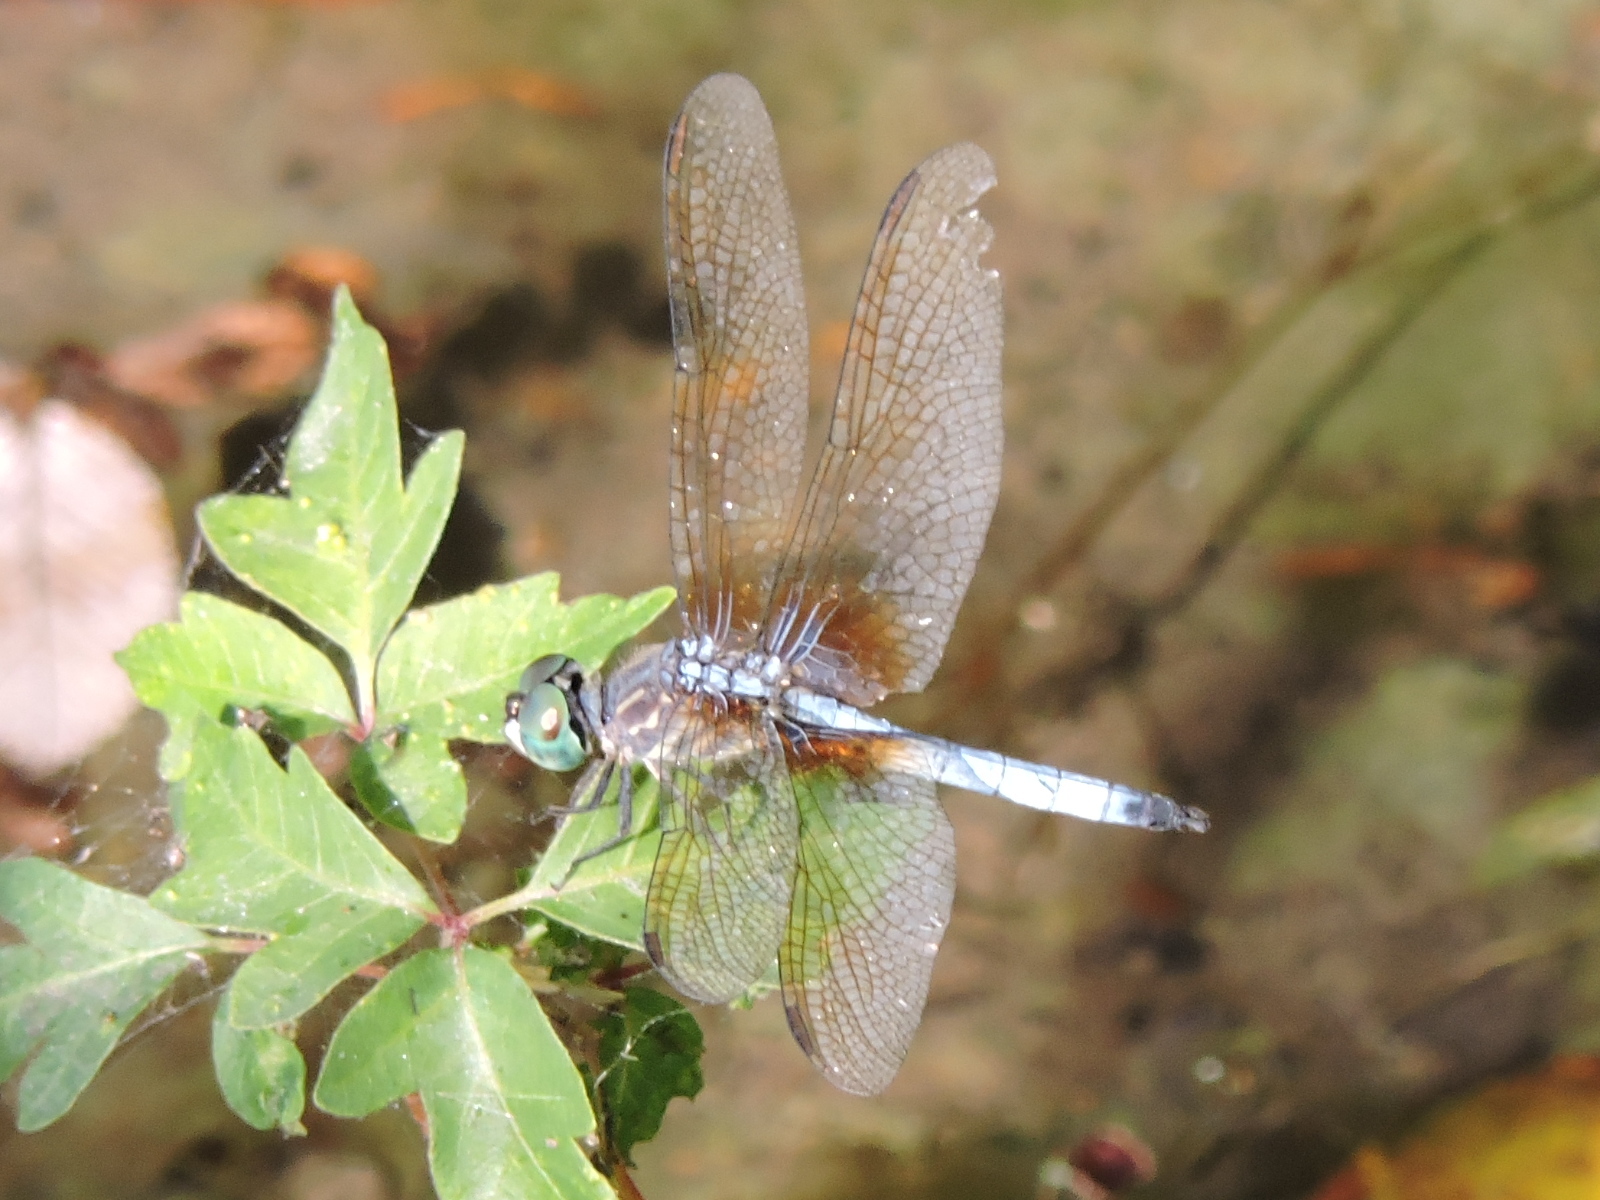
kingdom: Animalia
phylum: Arthropoda
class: Insecta
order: Odonata
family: Libellulidae
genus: Pachydiplax
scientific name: Pachydiplax longipennis
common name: Blue dasher
